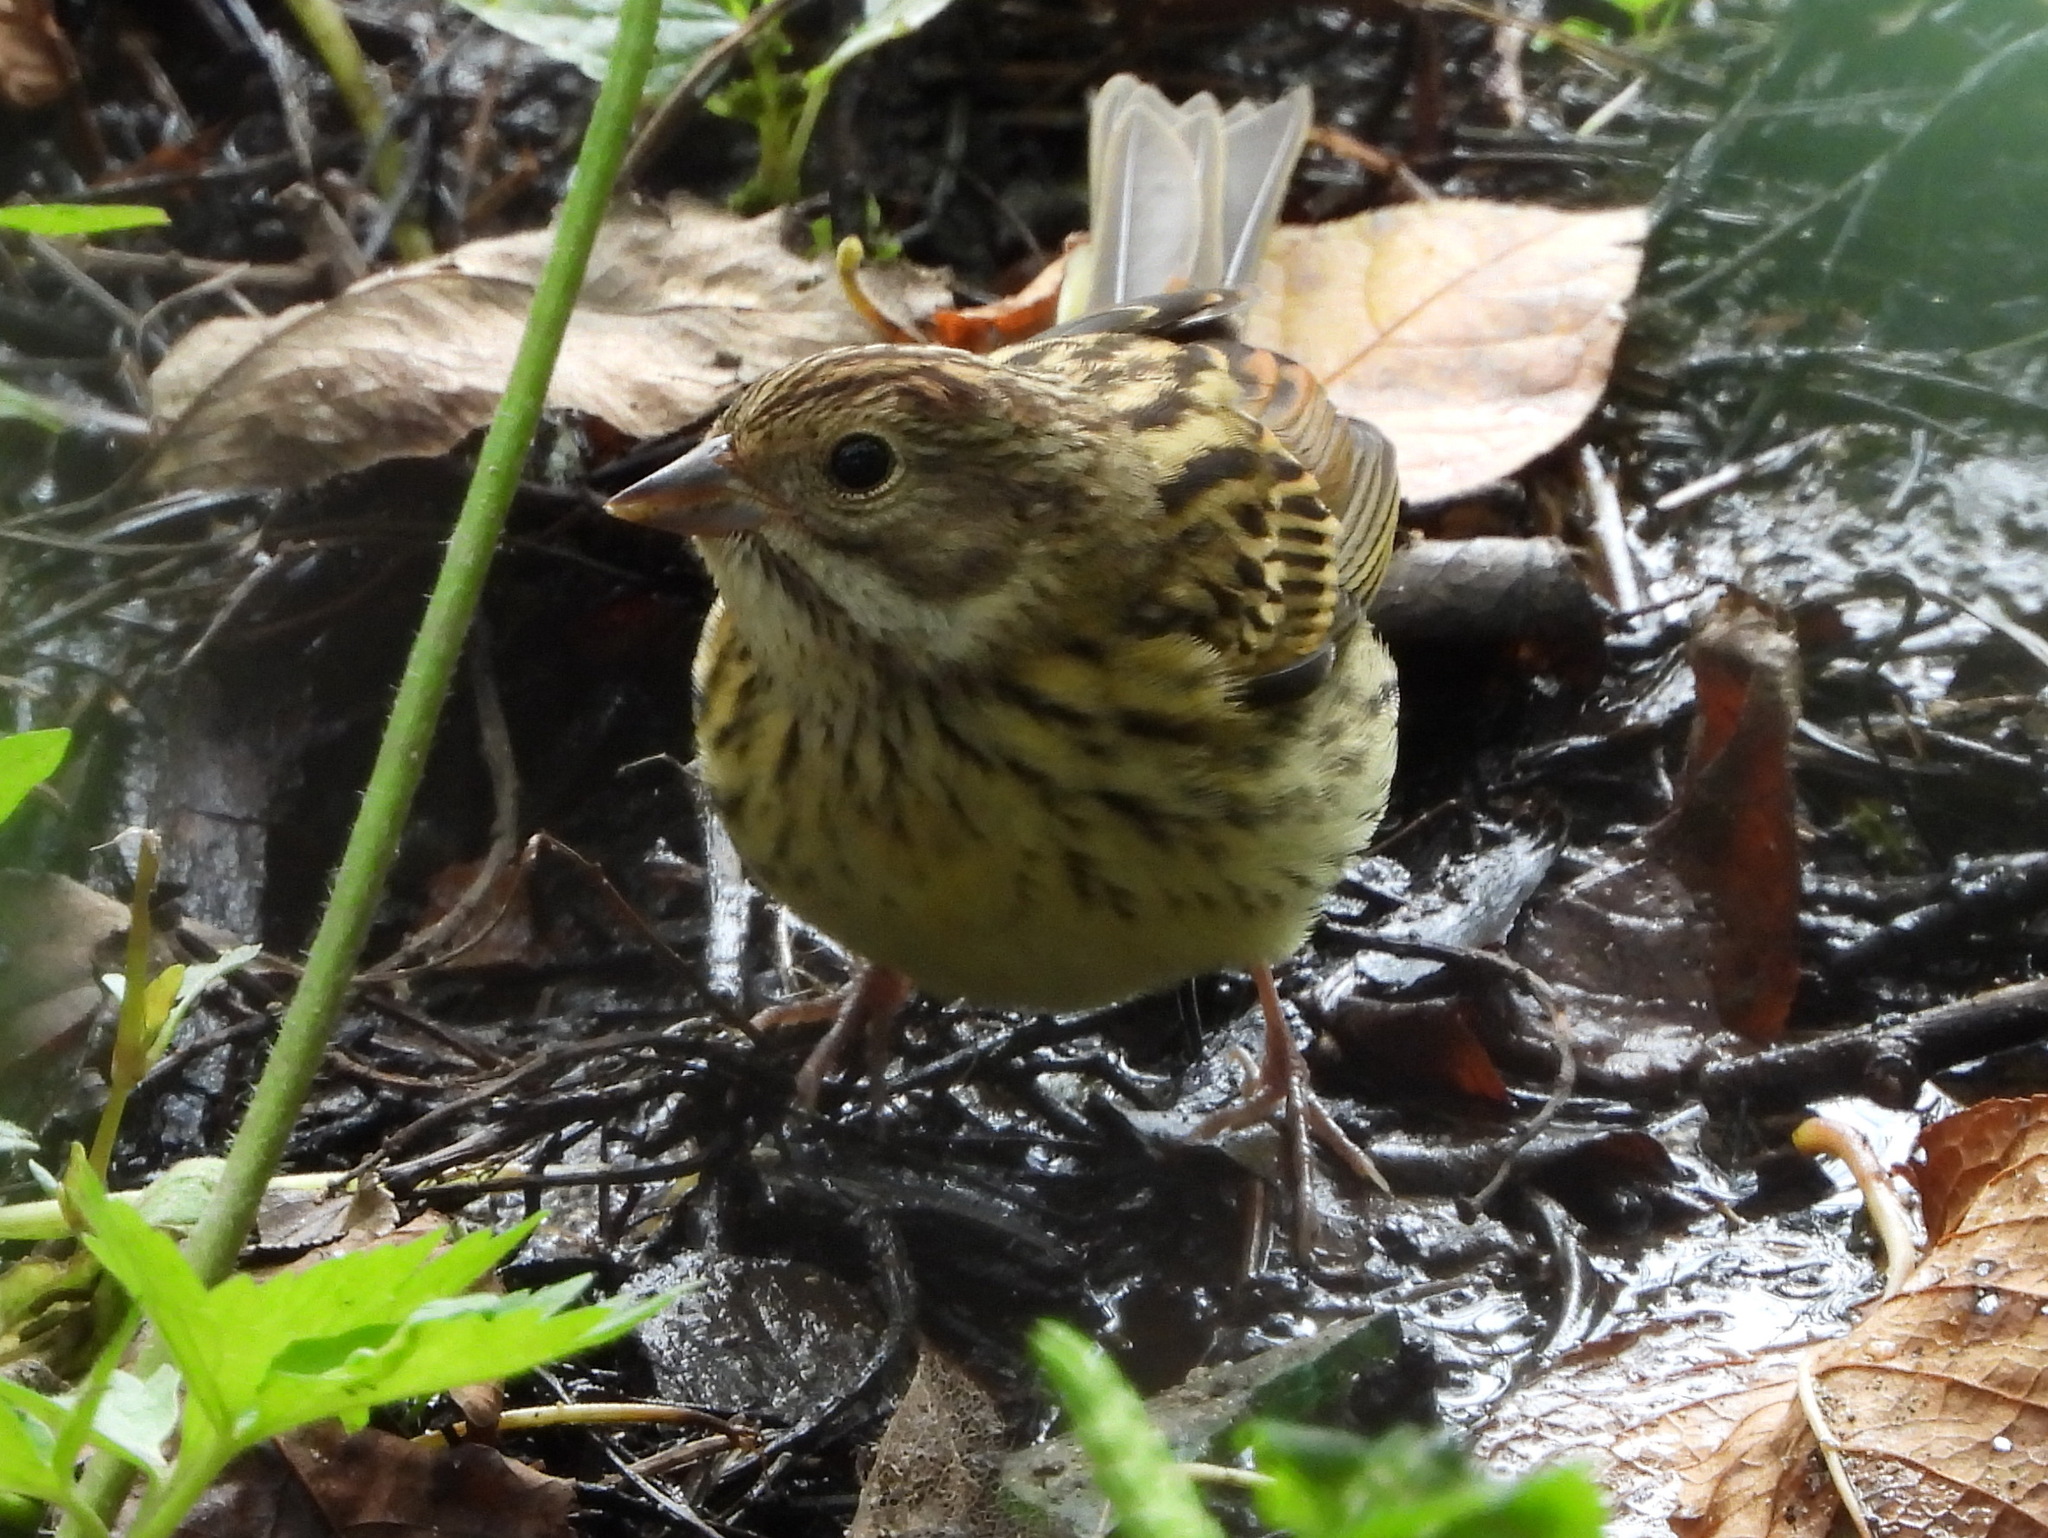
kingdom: Animalia
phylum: Chordata
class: Aves
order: Passeriformes
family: Emberizidae
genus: Emberiza
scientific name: Emberiza spodocephala
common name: Black-faced bunting
